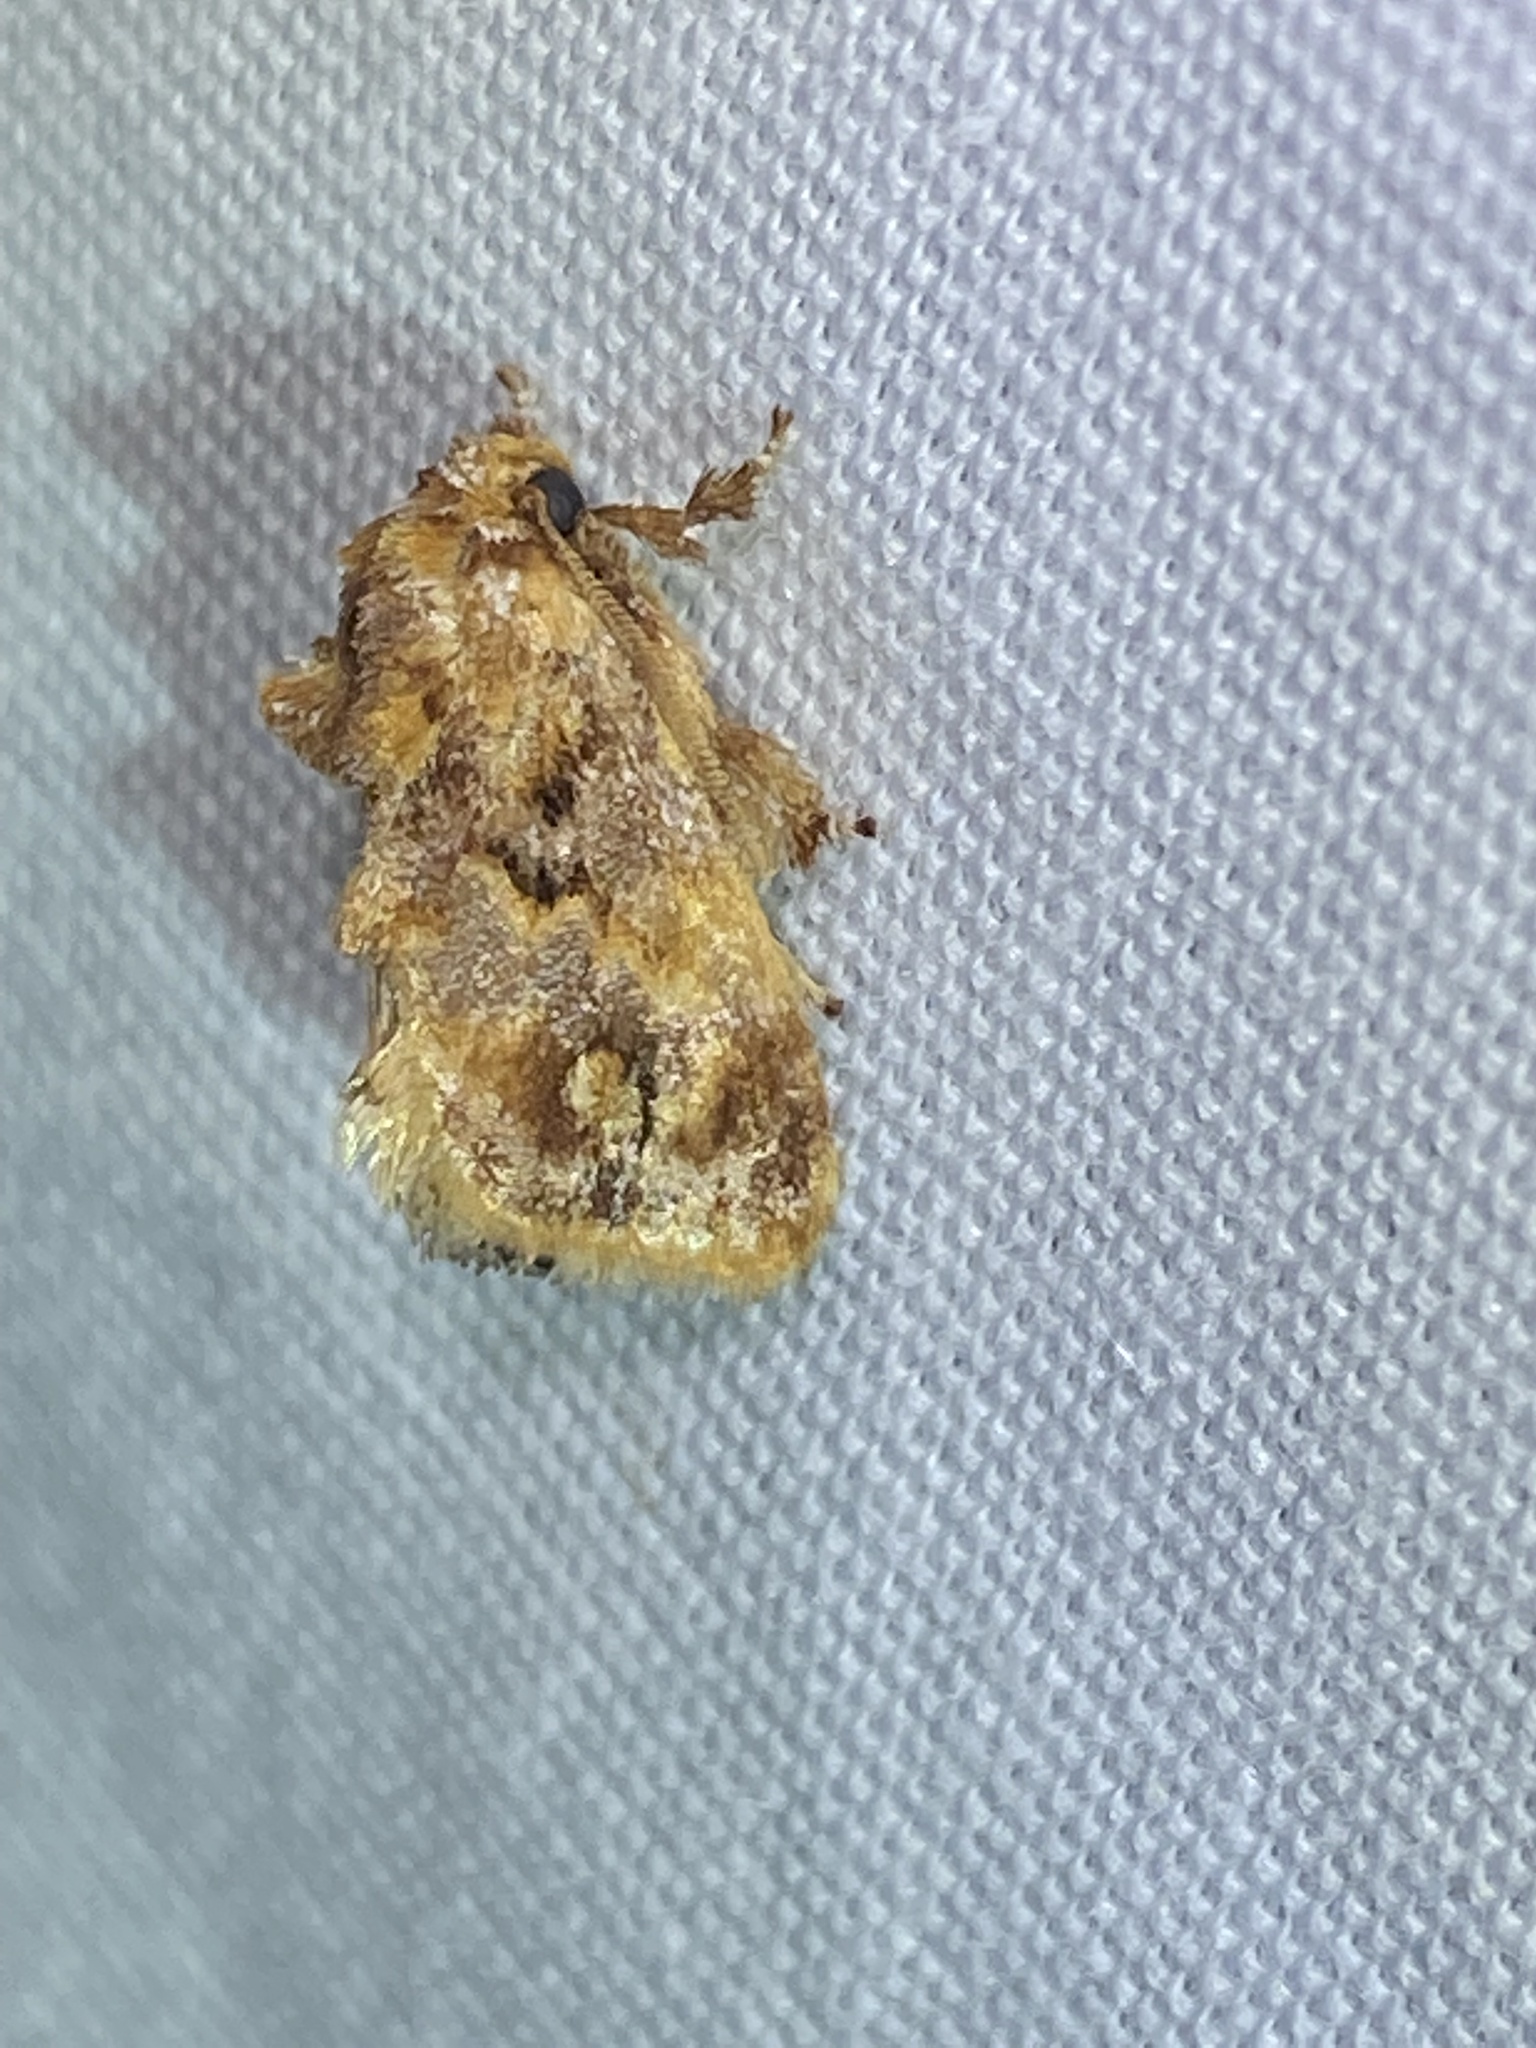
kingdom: Animalia
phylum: Arthropoda
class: Insecta
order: Lepidoptera
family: Limacodidae
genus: Isochaetes
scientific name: Isochaetes beutenmuelleri
